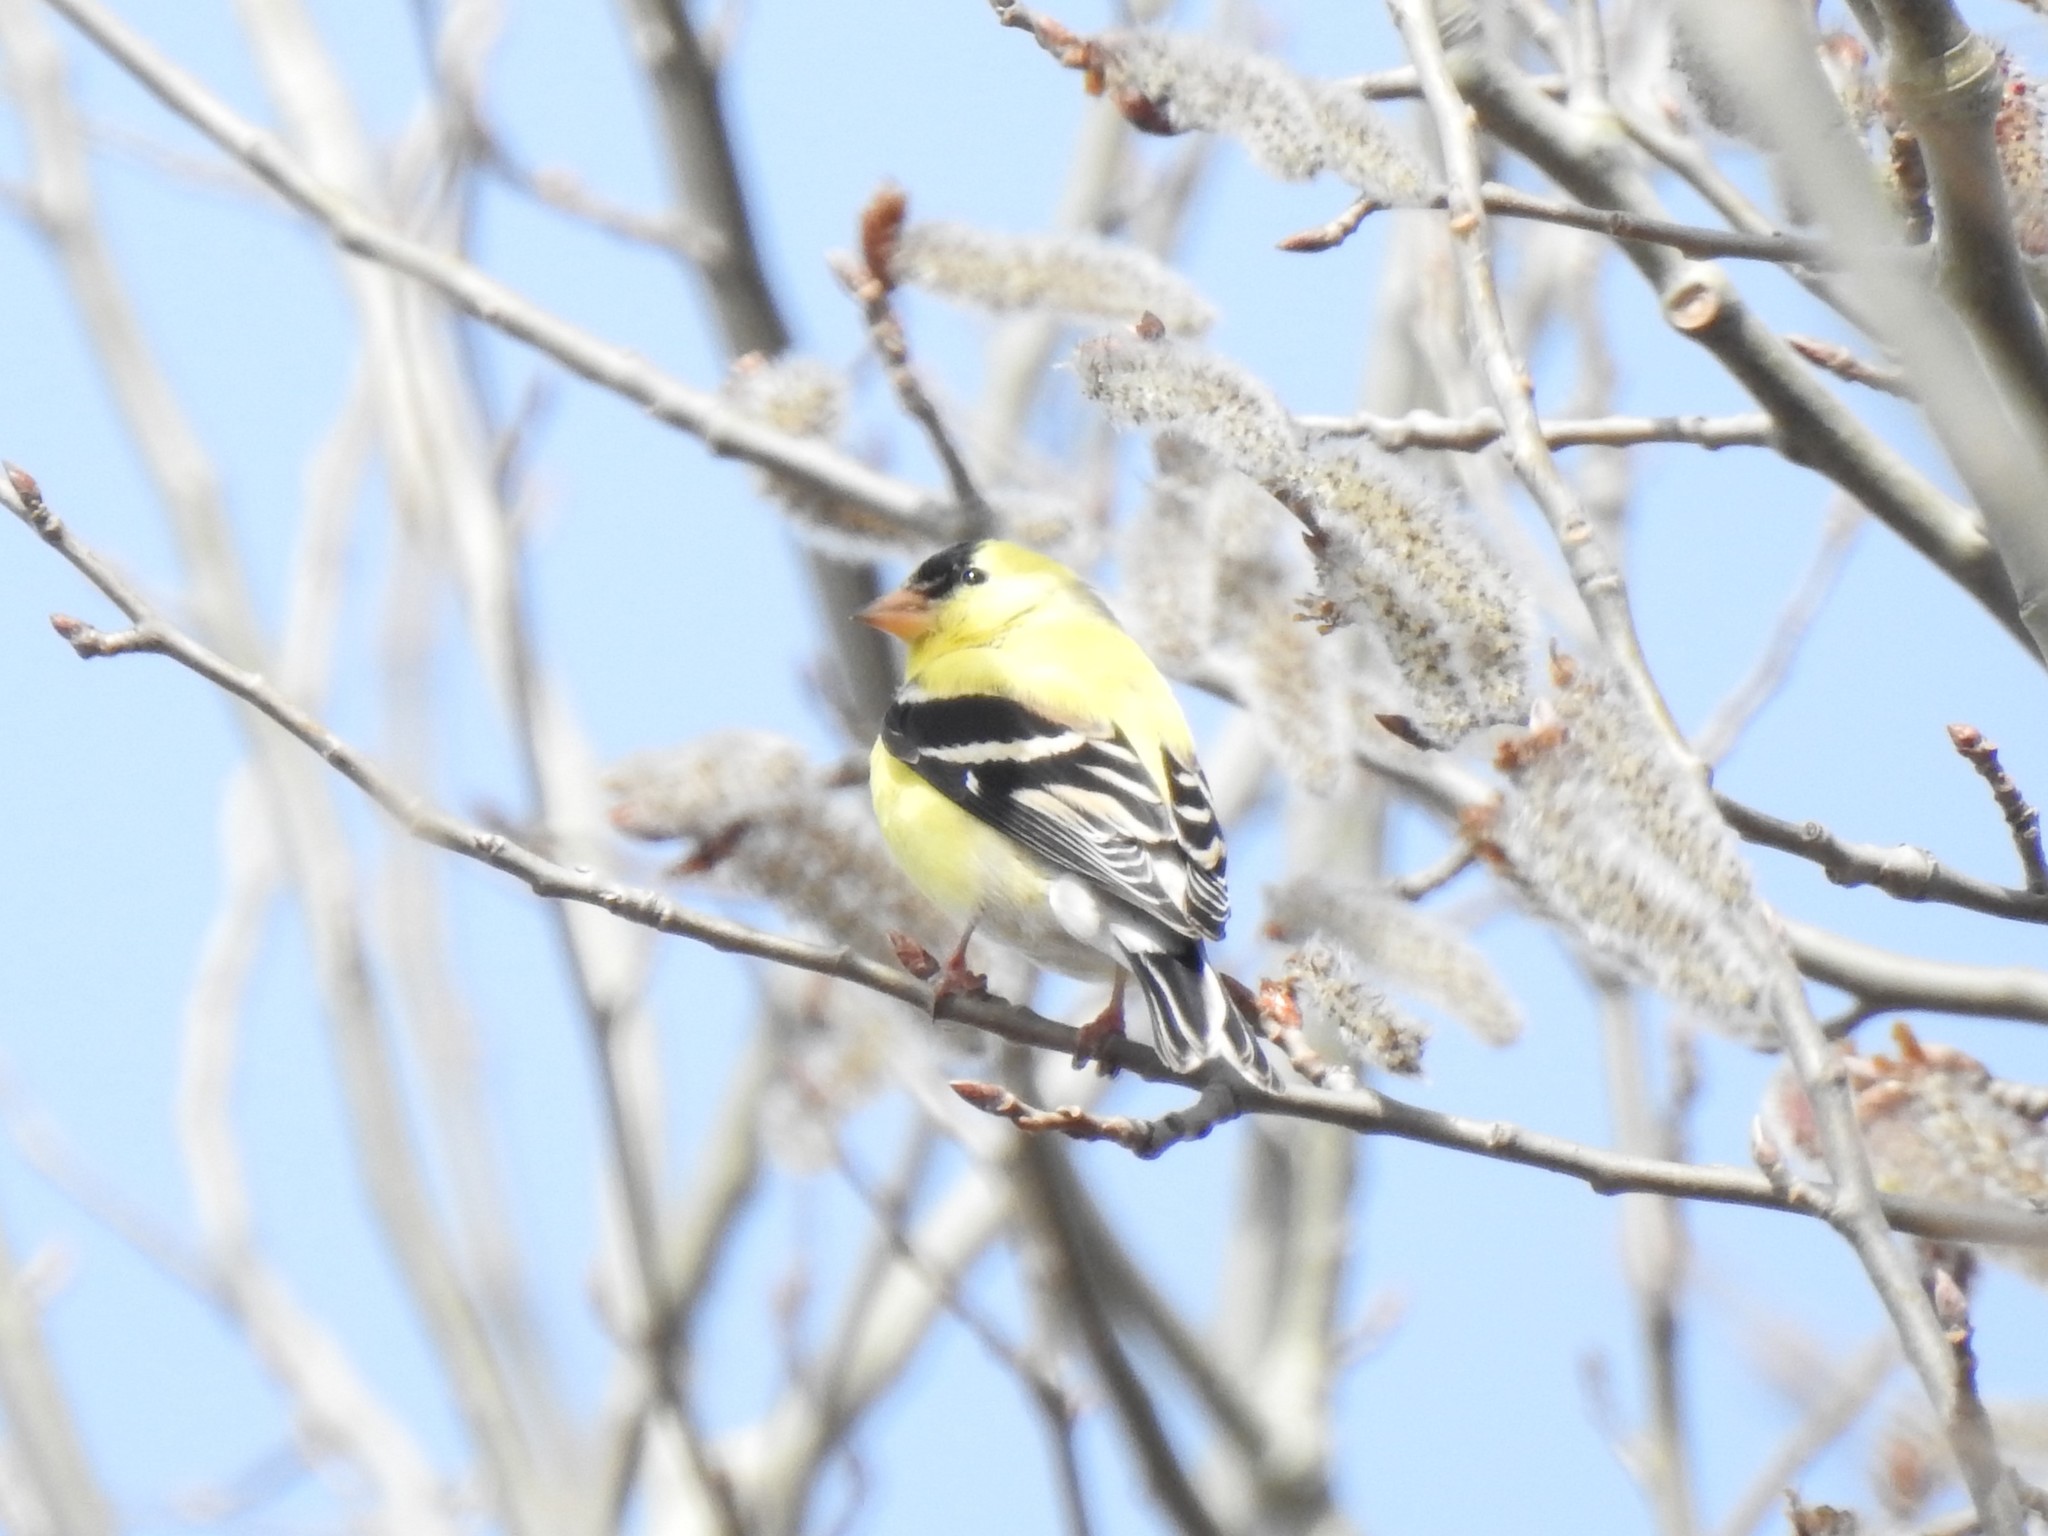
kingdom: Animalia
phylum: Chordata
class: Aves
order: Passeriformes
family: Fringillidae
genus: Spinus
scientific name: Spinus tristis
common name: American goldfinch
